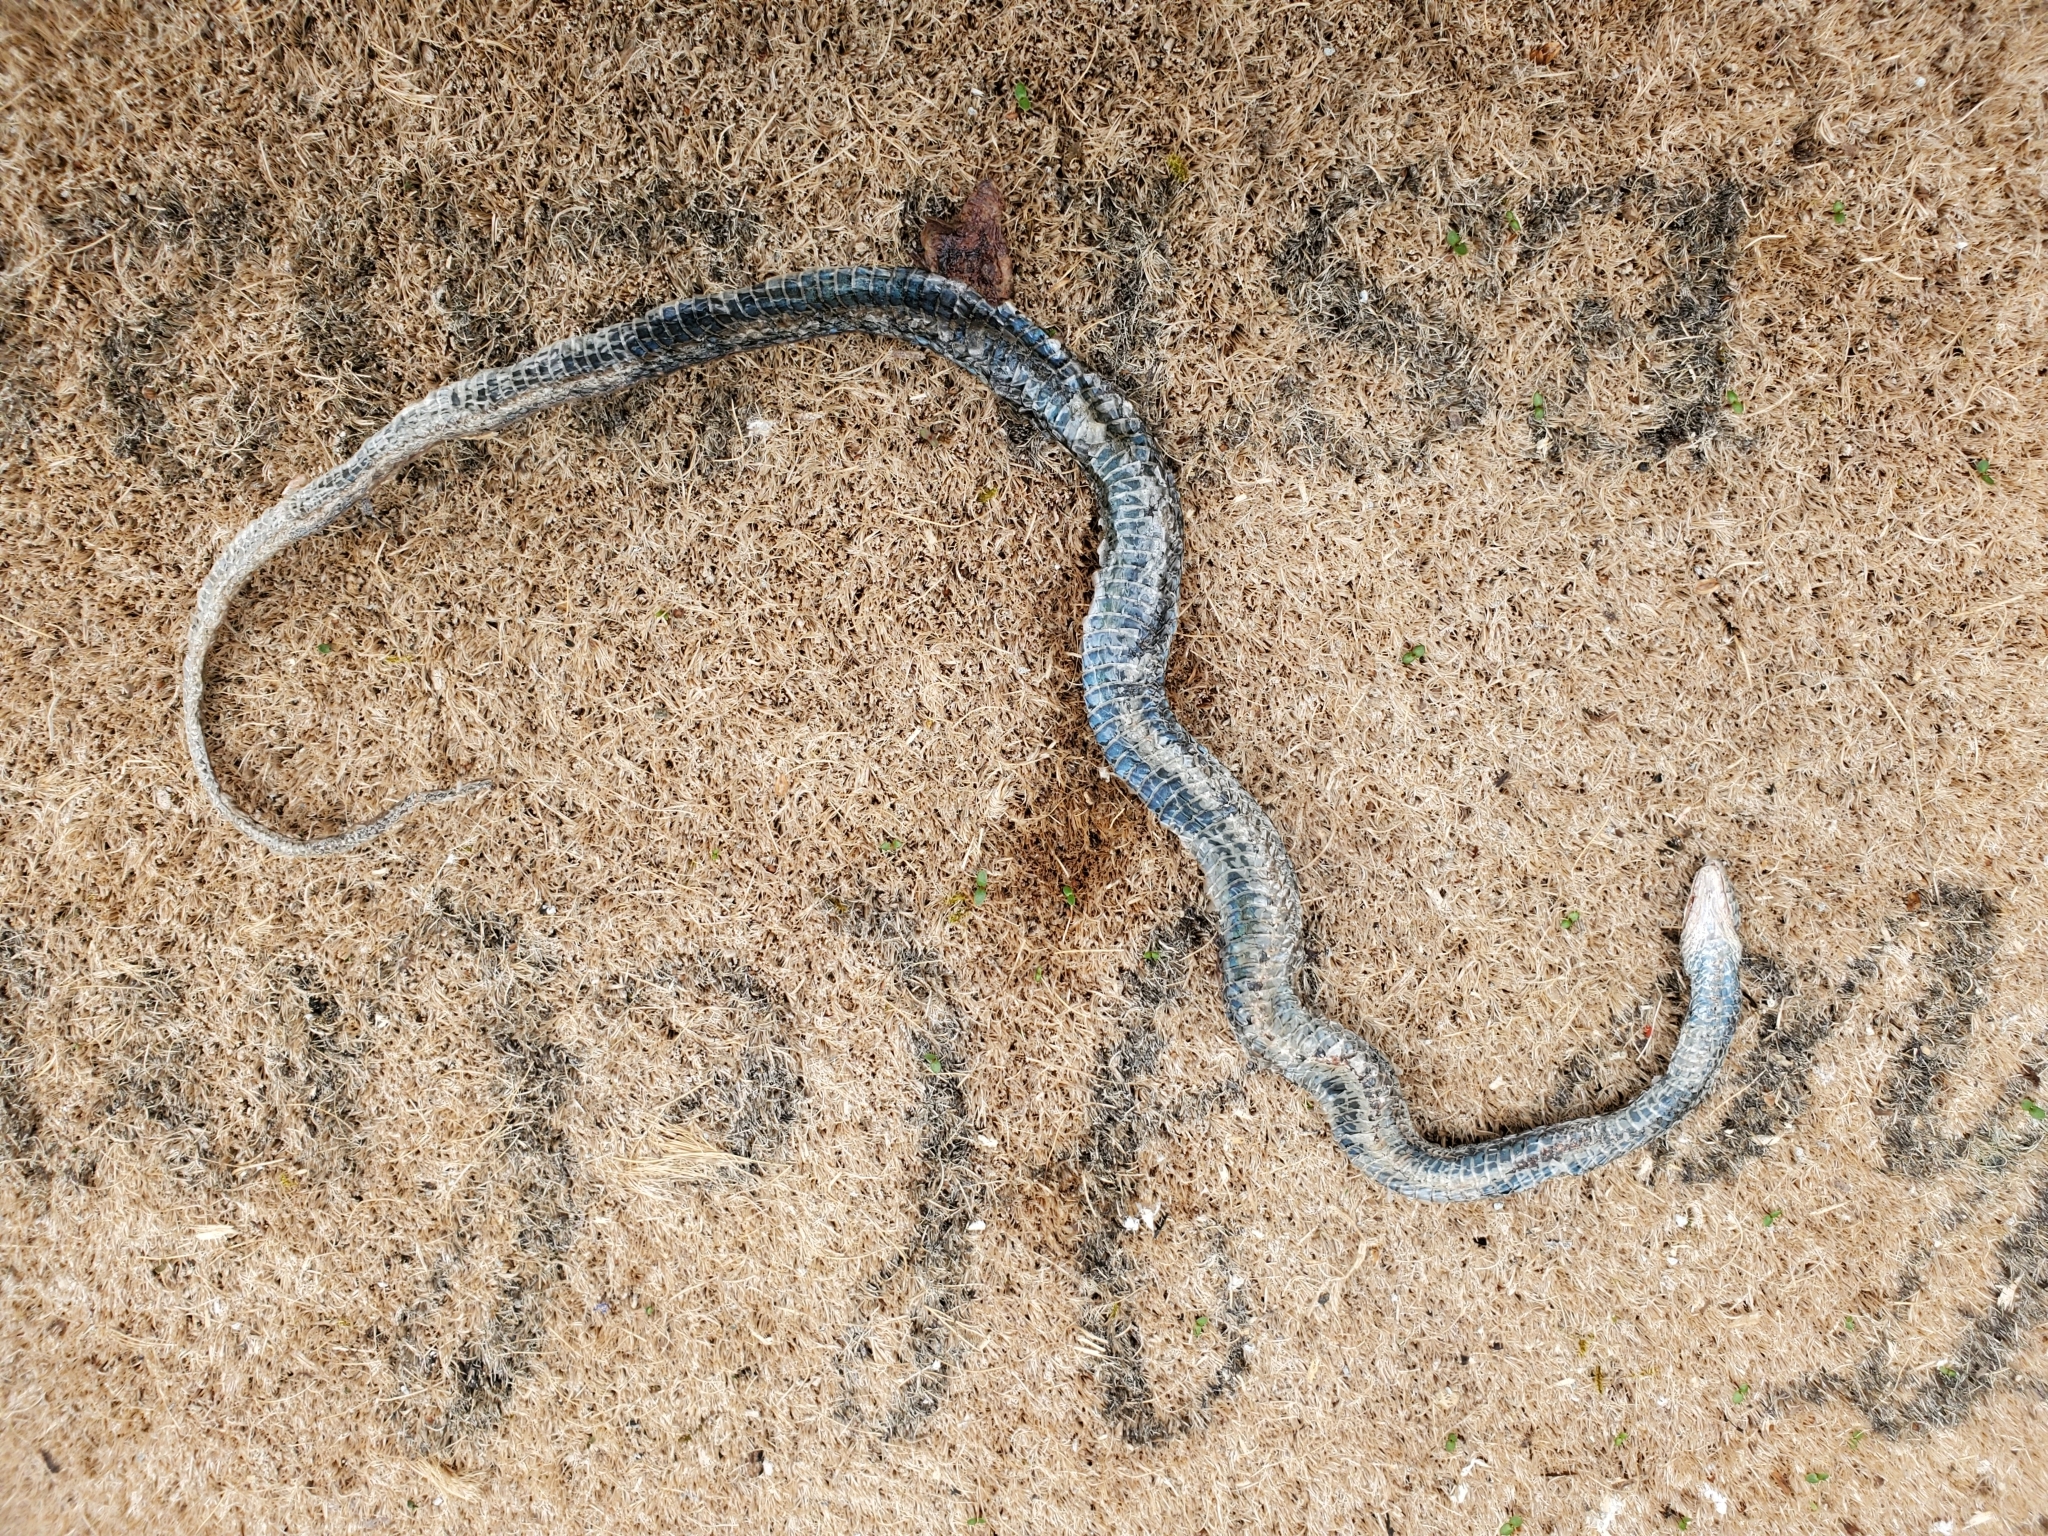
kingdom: Animalia
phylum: Chordata
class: Squamata
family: Colubridae
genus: Thamnophis
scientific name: Thamnophis ordinoides
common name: Northwestern garter snake
